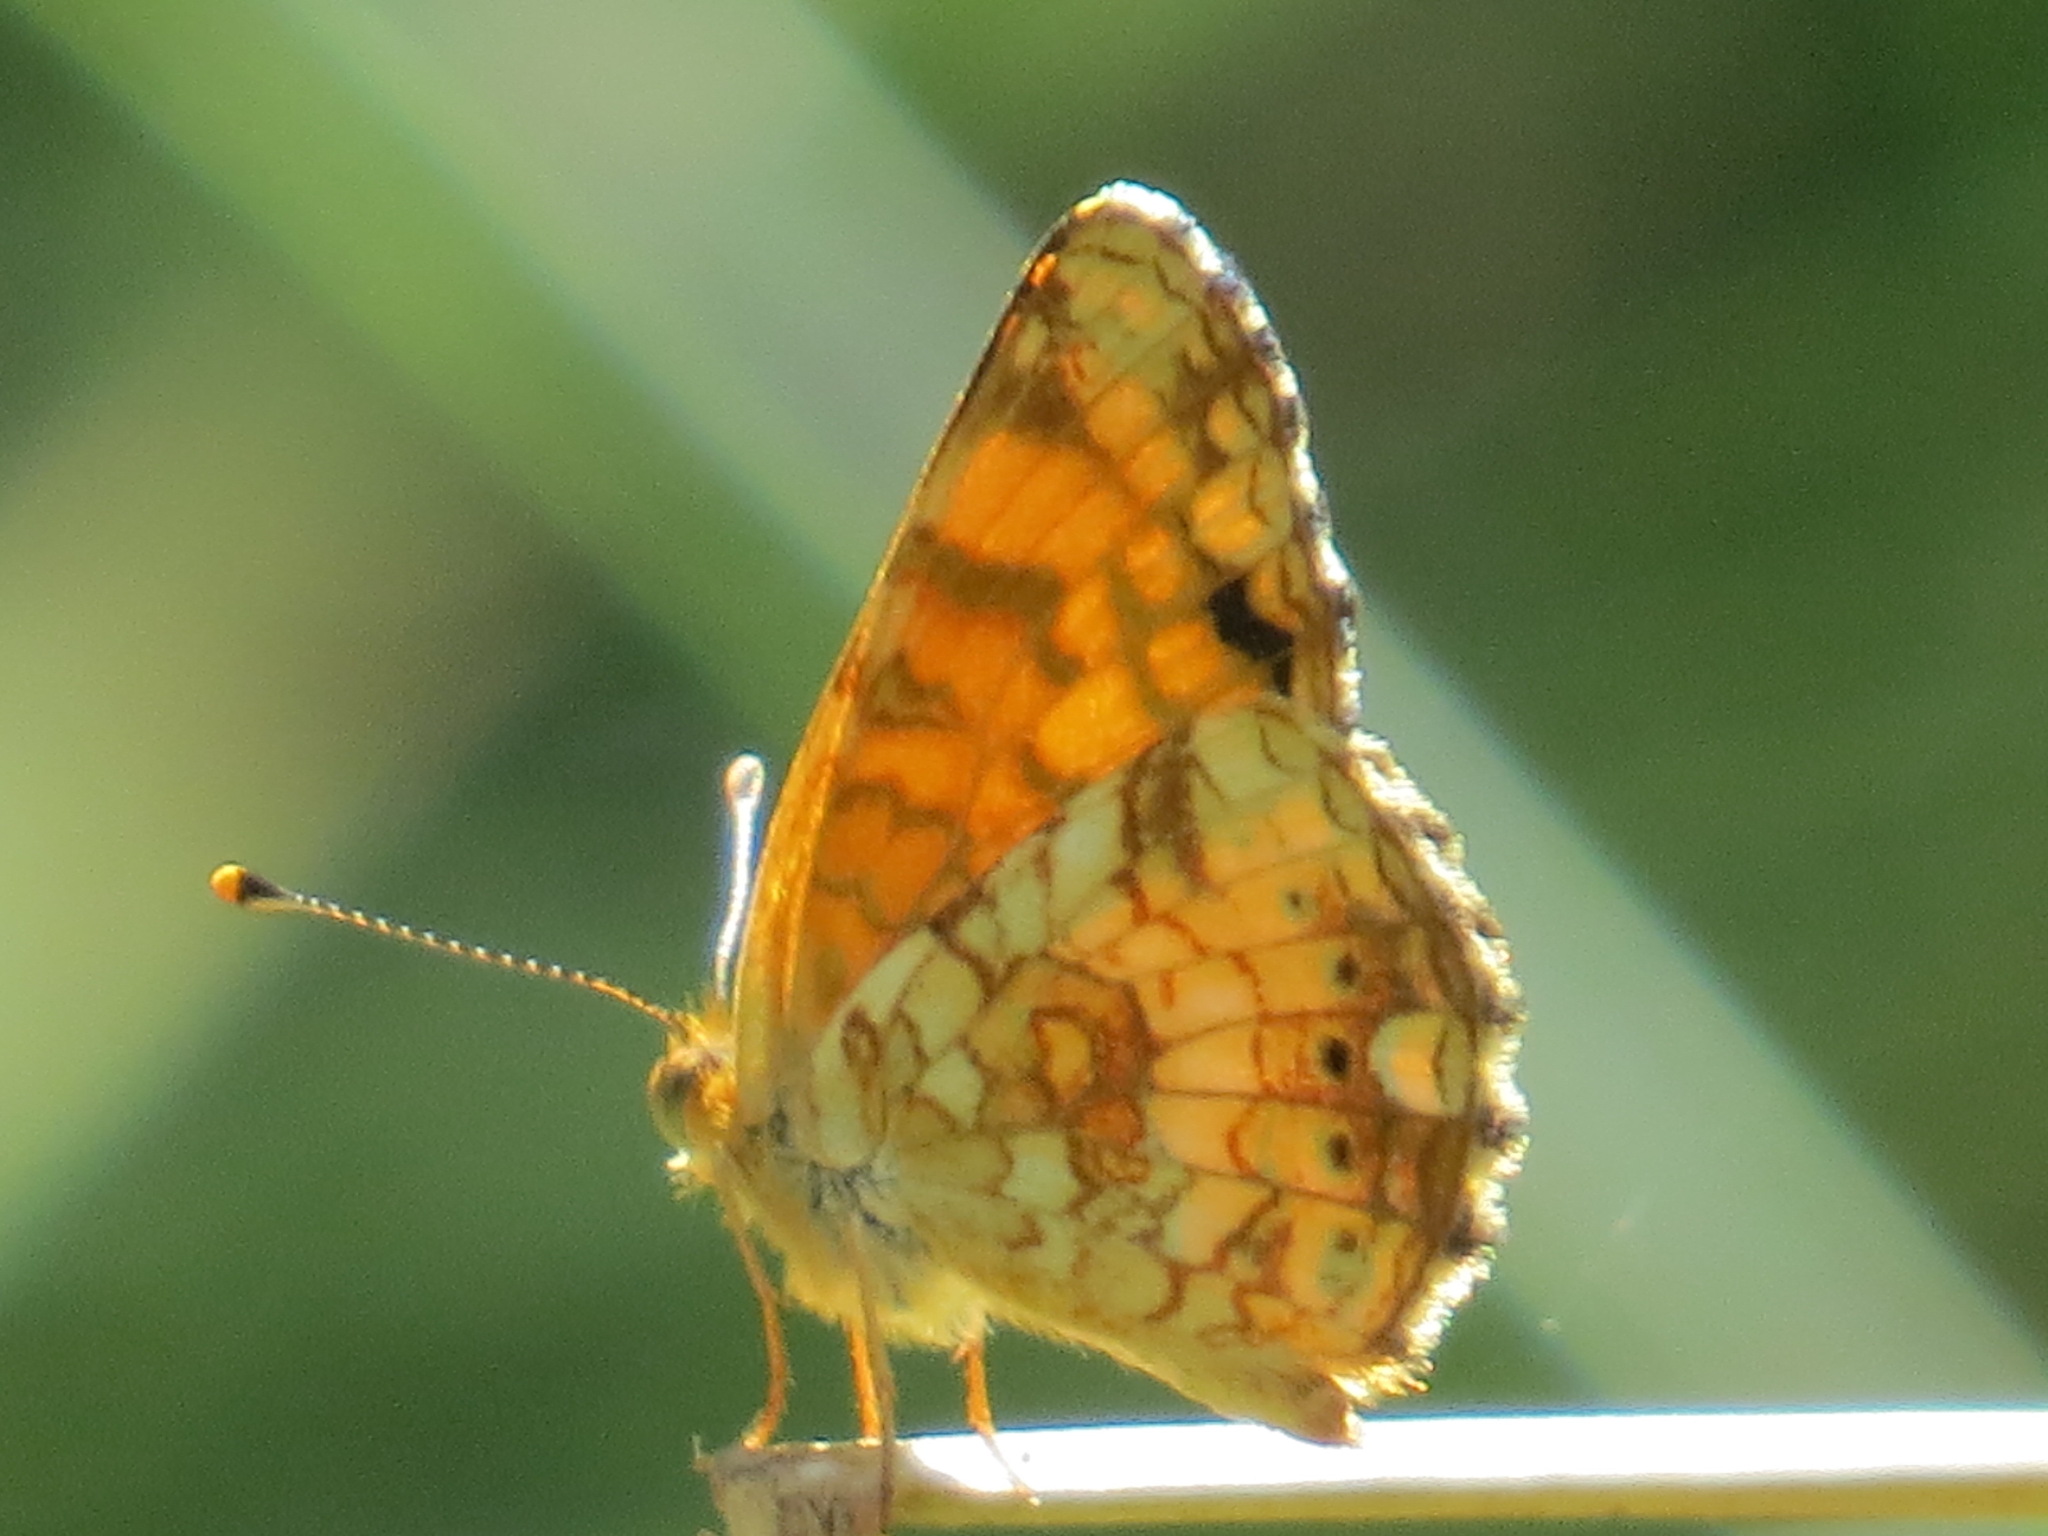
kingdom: Animalia
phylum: Arthropoda
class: Insecta
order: Lepidoptera
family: Nymphalidae
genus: Eresia
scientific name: Eresia aveyrona
